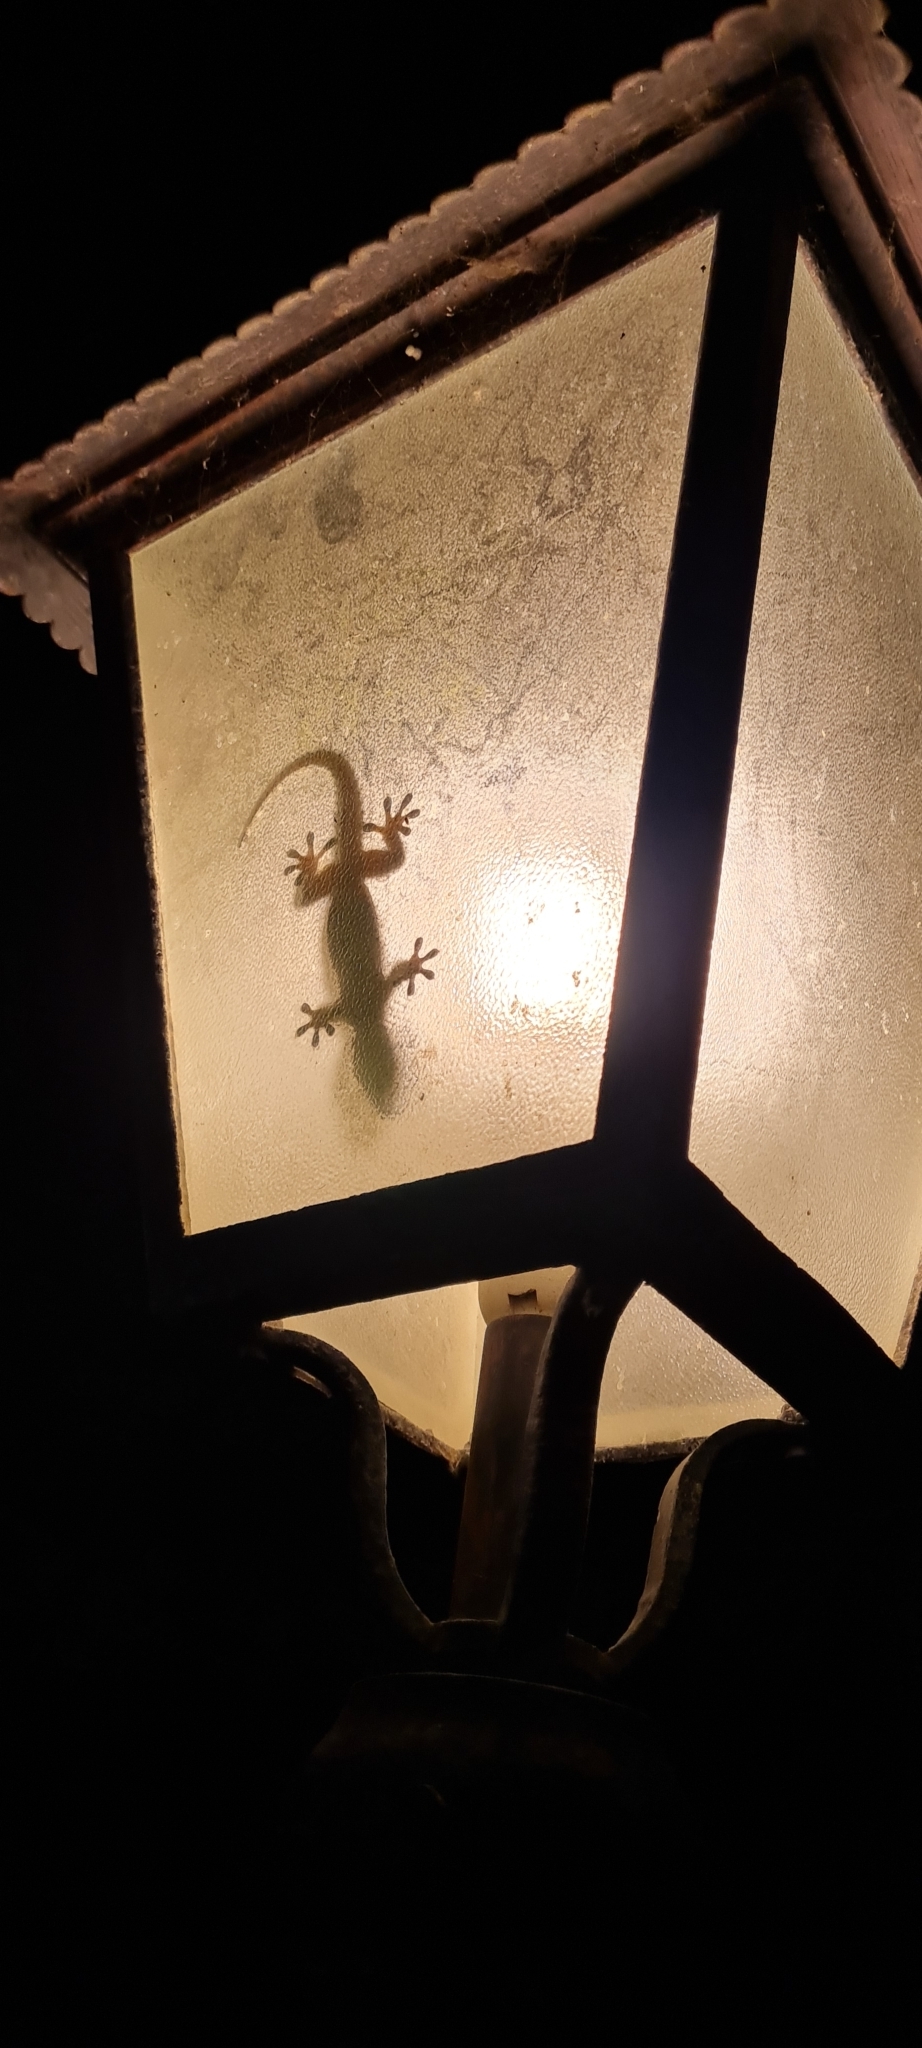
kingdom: Animalia
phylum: Chordata
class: Squamata
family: Phyllodactylidae
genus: Tarentola
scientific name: Tarentola mauritanica
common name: Moorish gecko
